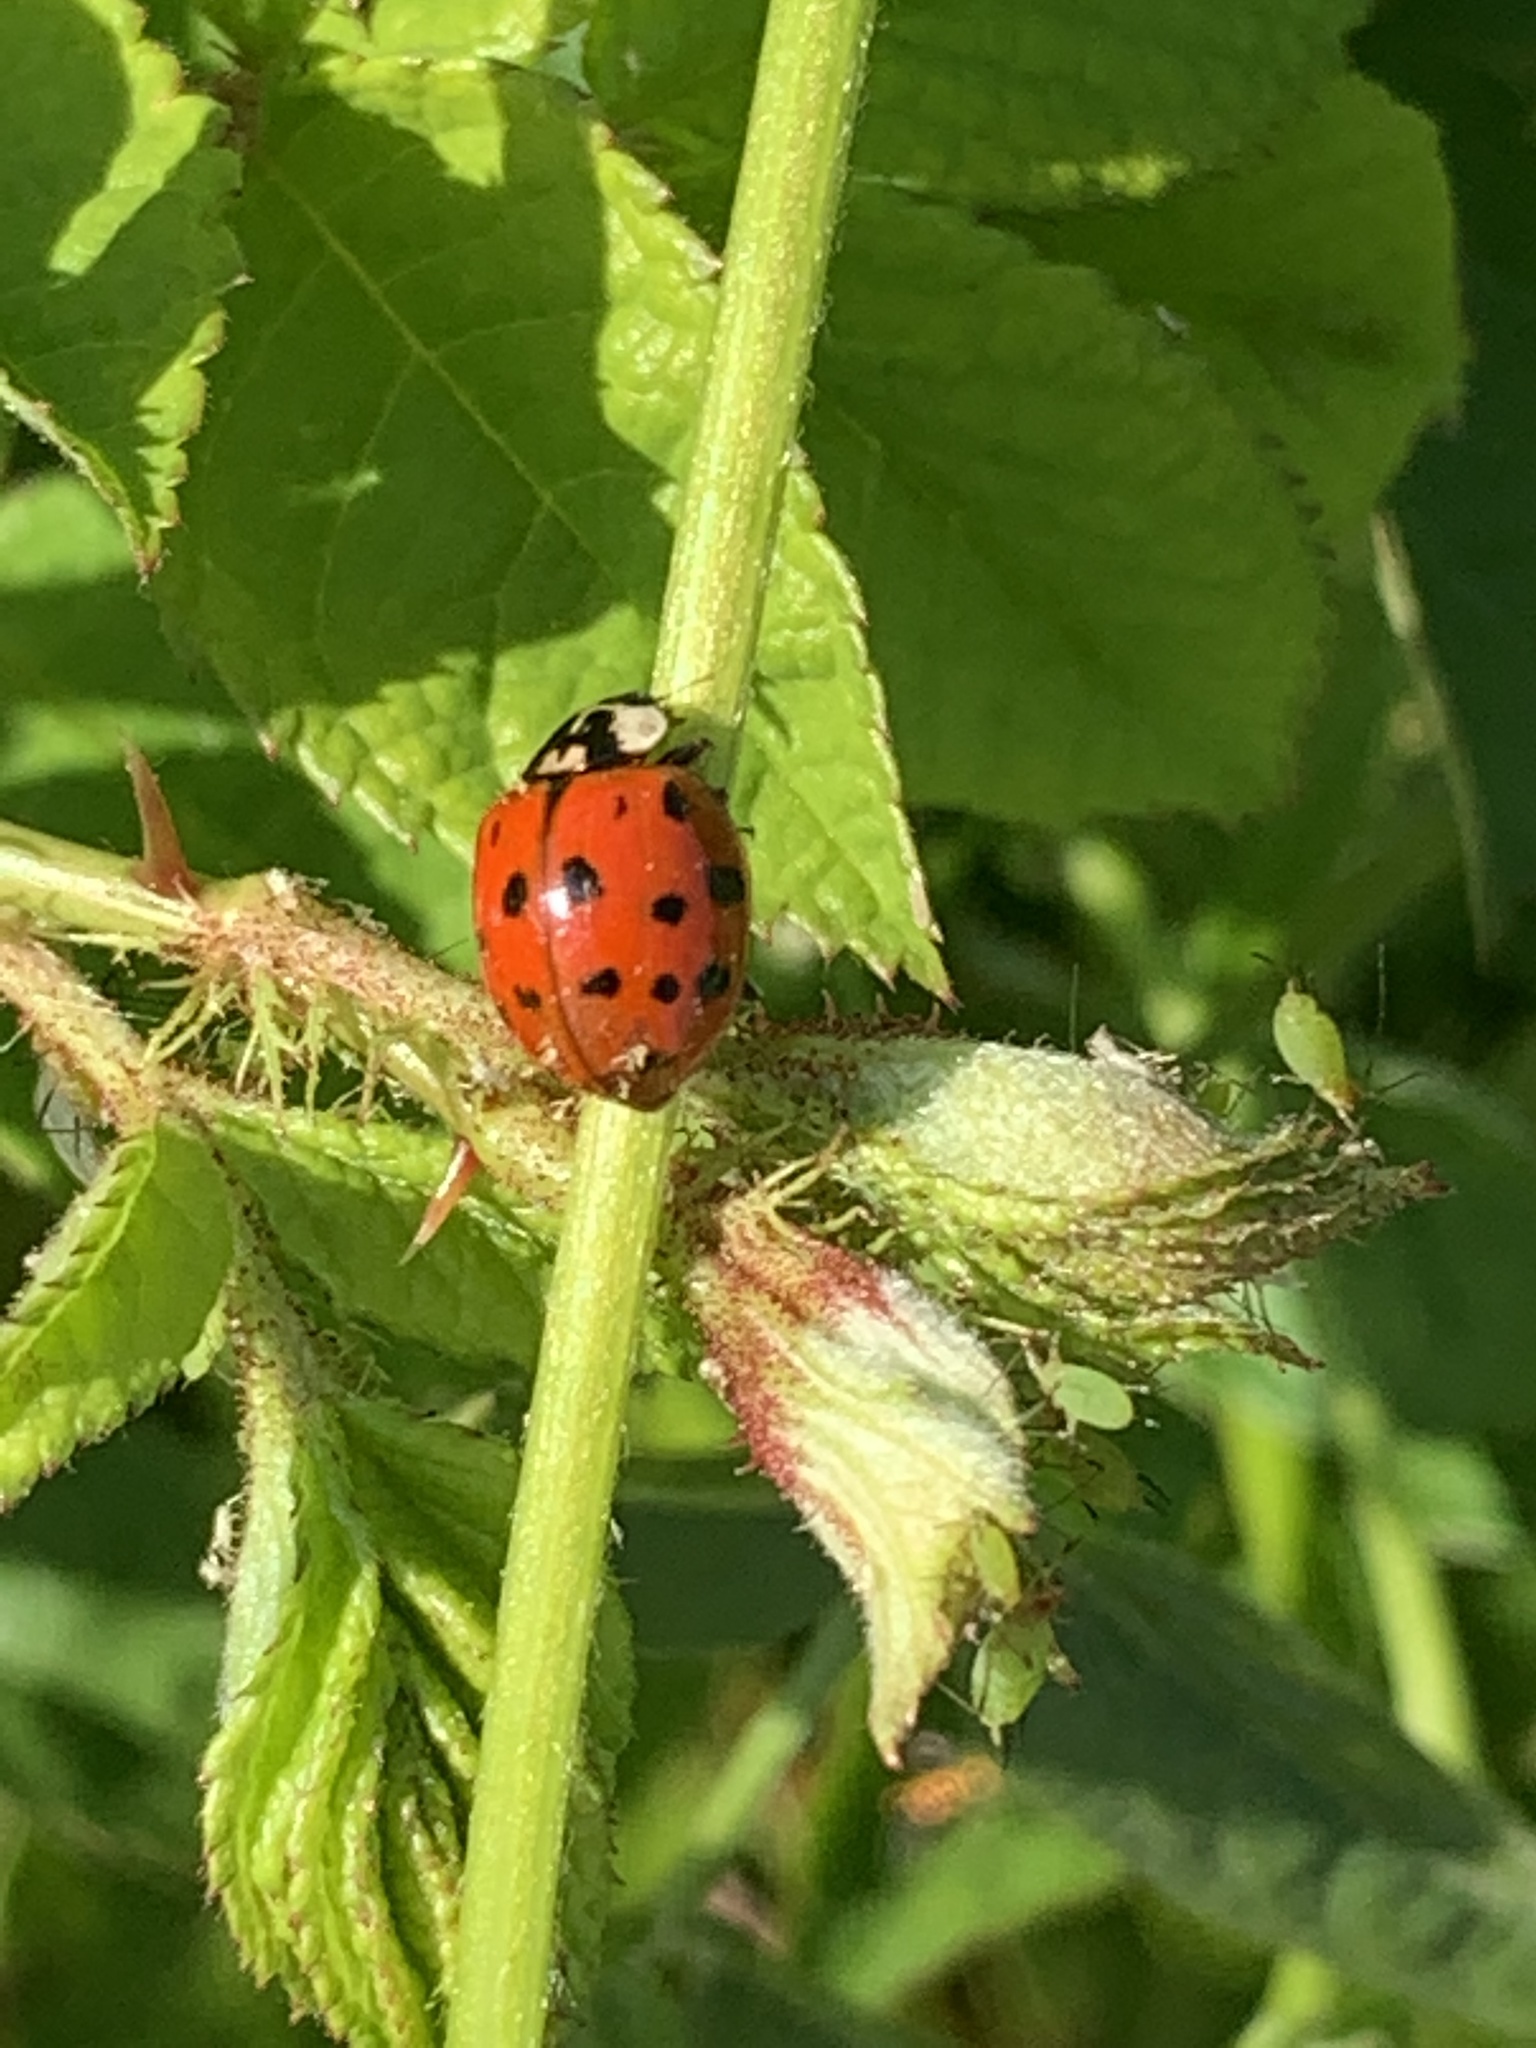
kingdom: Animalia
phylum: Arthropoda
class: Insecta
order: Coleoptera
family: Coccinellidae
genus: Harmonia
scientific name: Harmonia axyridis
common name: Harlequin ladybird
